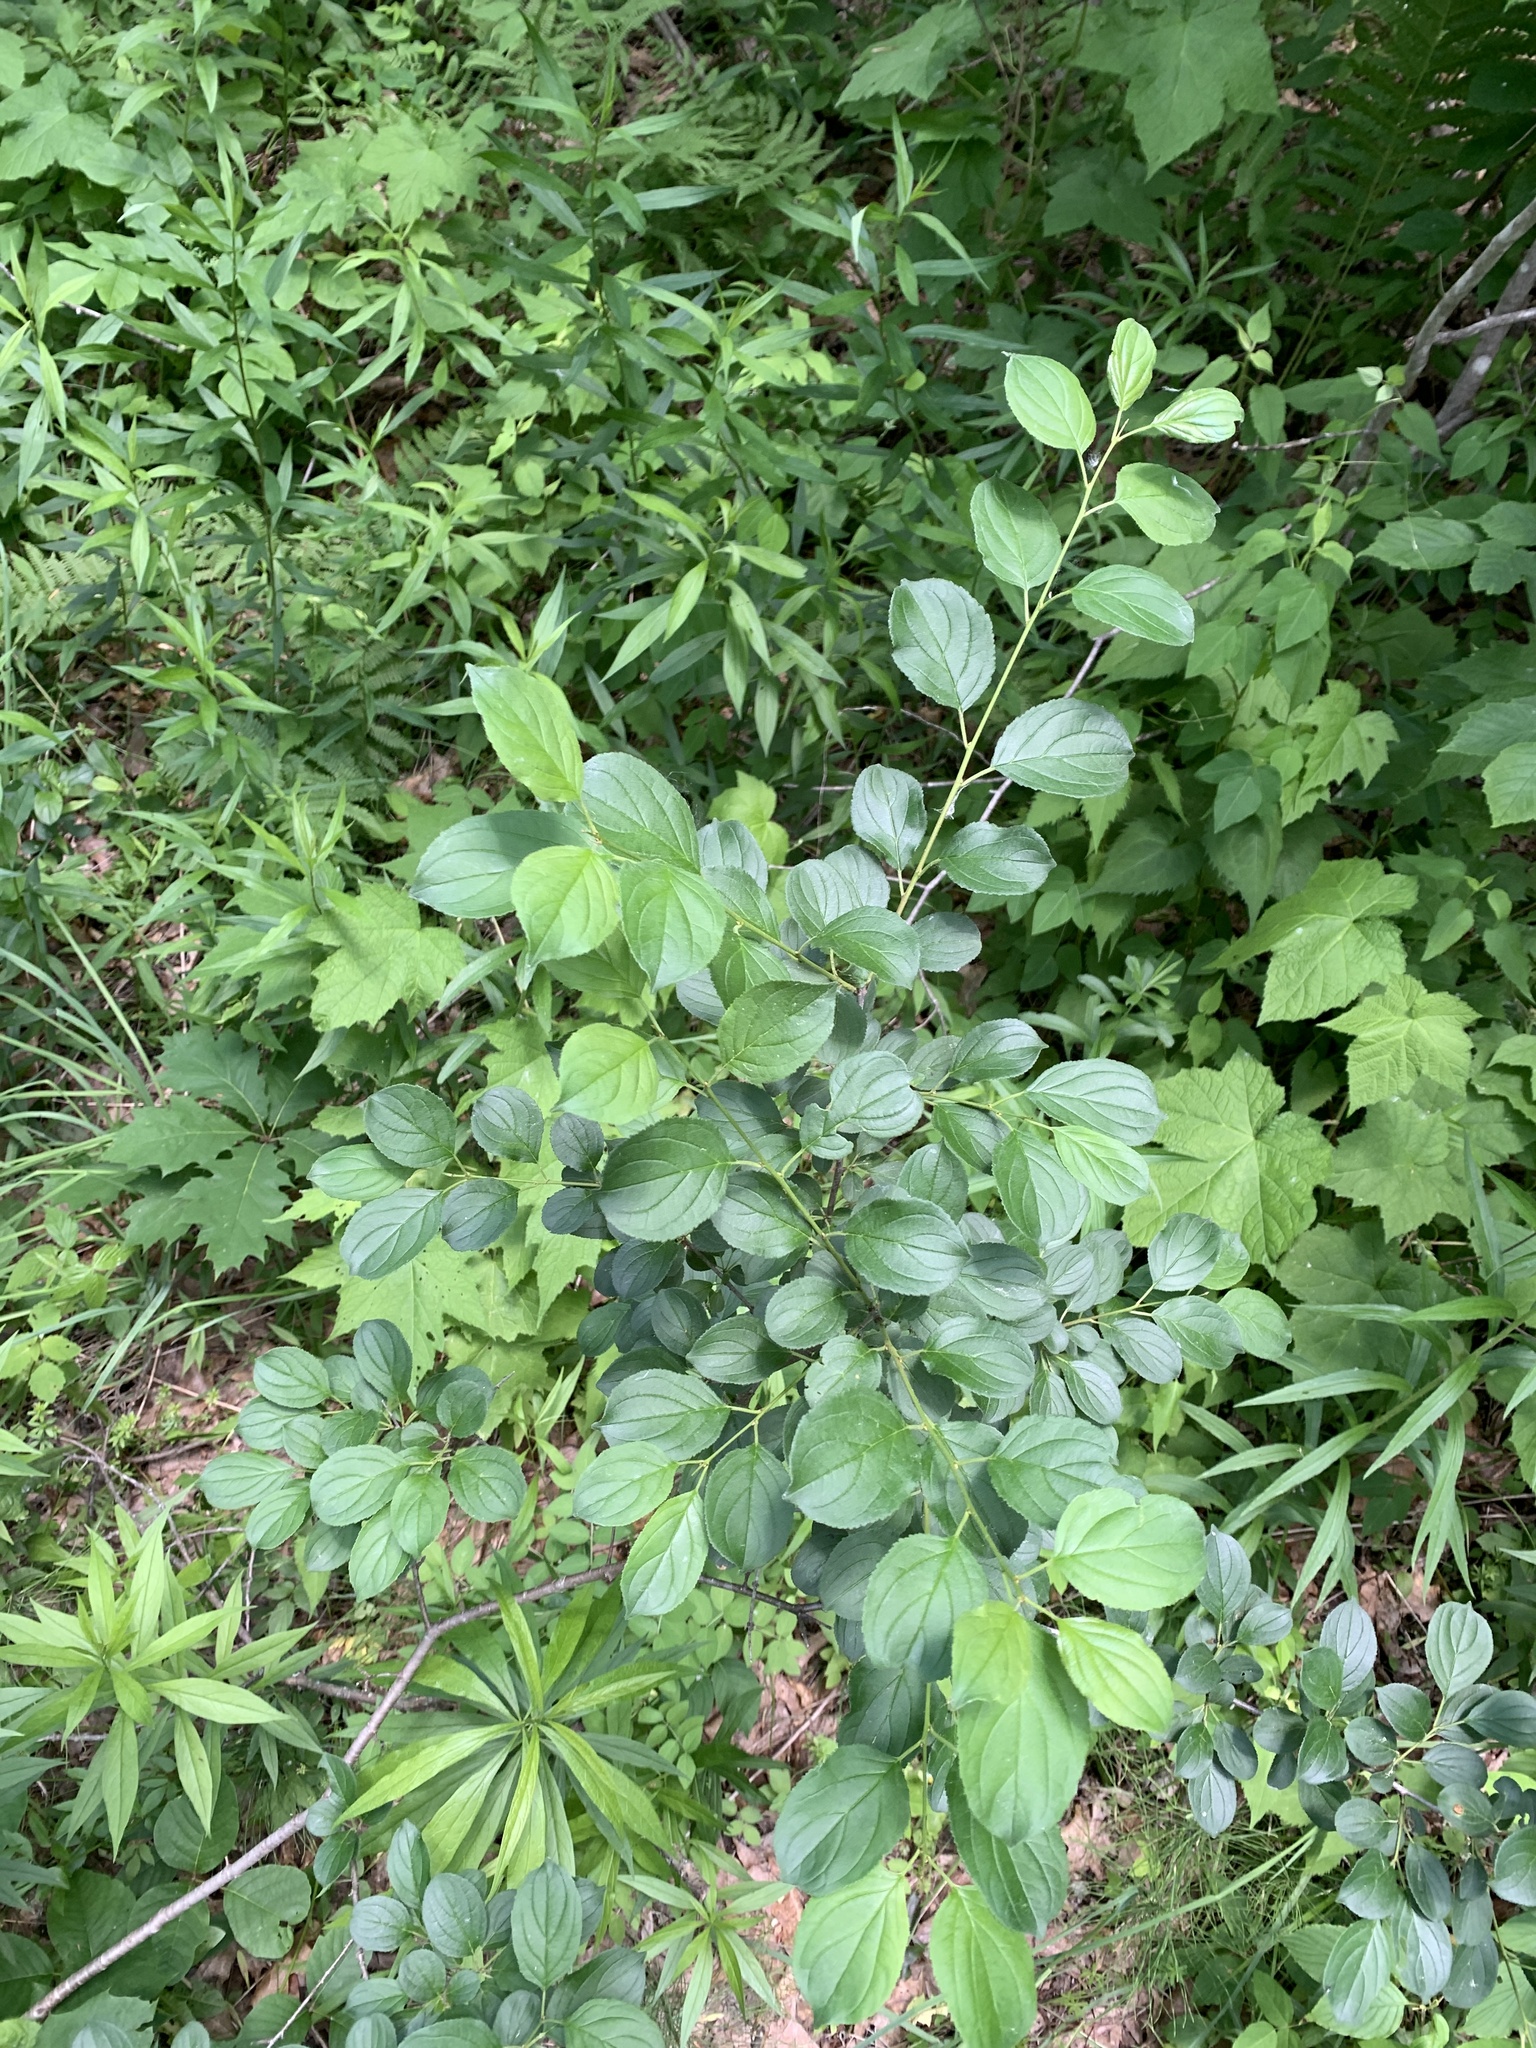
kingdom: Plantae
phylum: Tracheophyta
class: Magnoliopsida
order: Rosales
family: Rhamnaceae
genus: Rhamnus
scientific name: Rhamnus cathartica
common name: Common buckthorn
